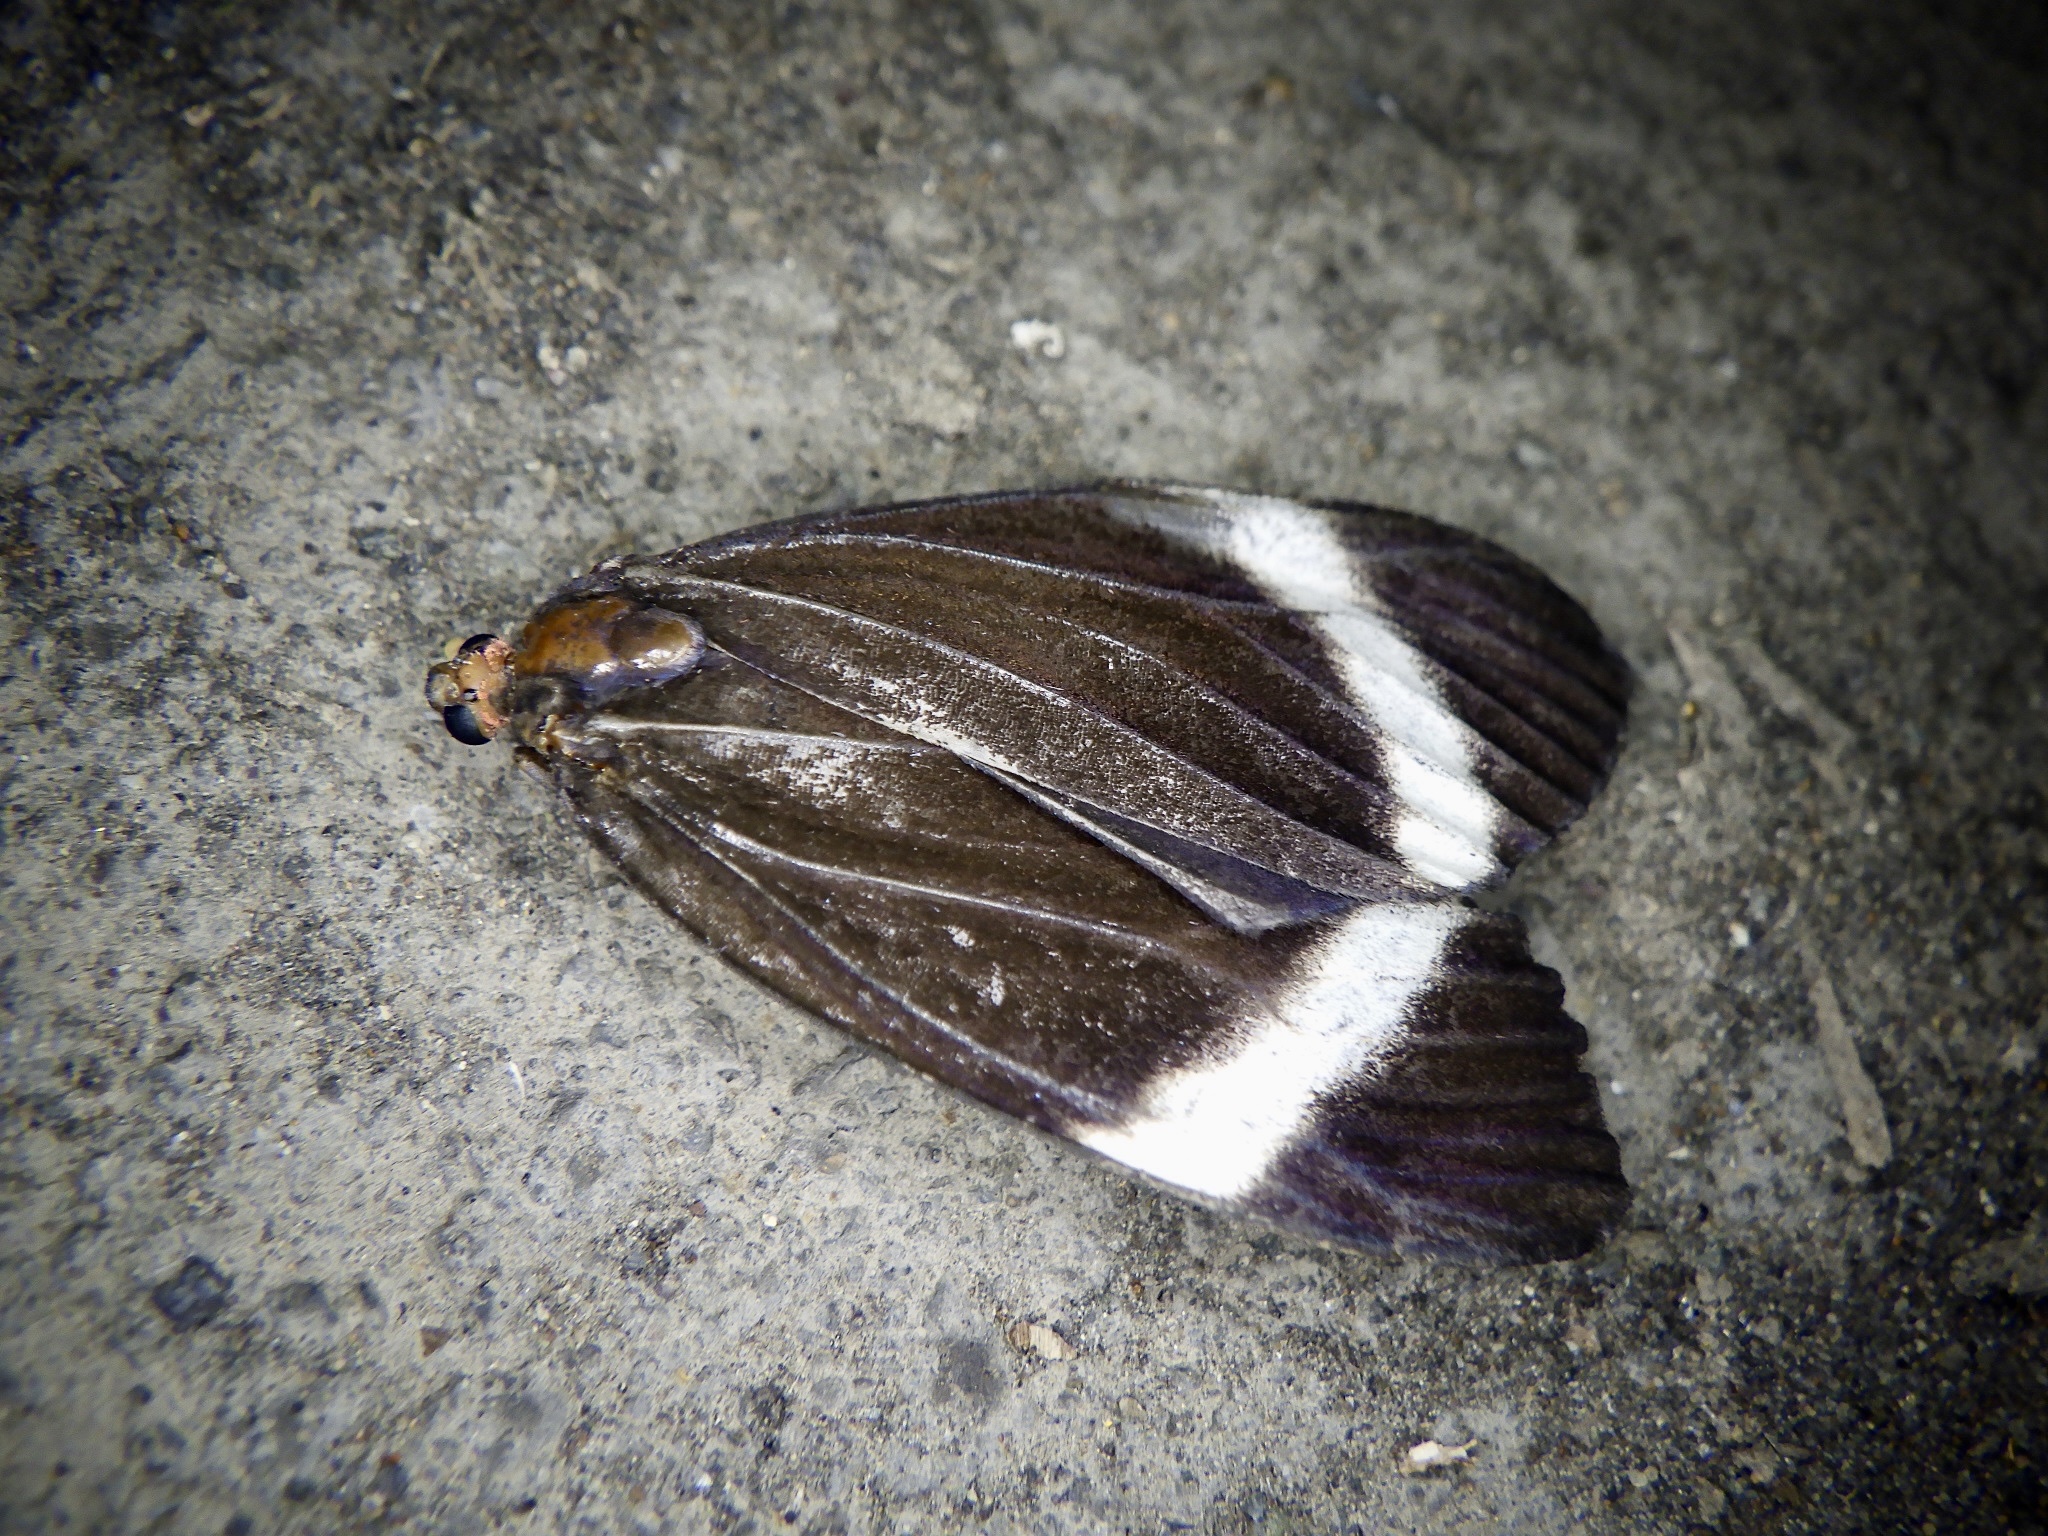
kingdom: Animalia
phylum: Arthropoda
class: Insecta
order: Lepidoptera
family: Zygaenidae
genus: Pidorus
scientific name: Pidorus glaucopis
